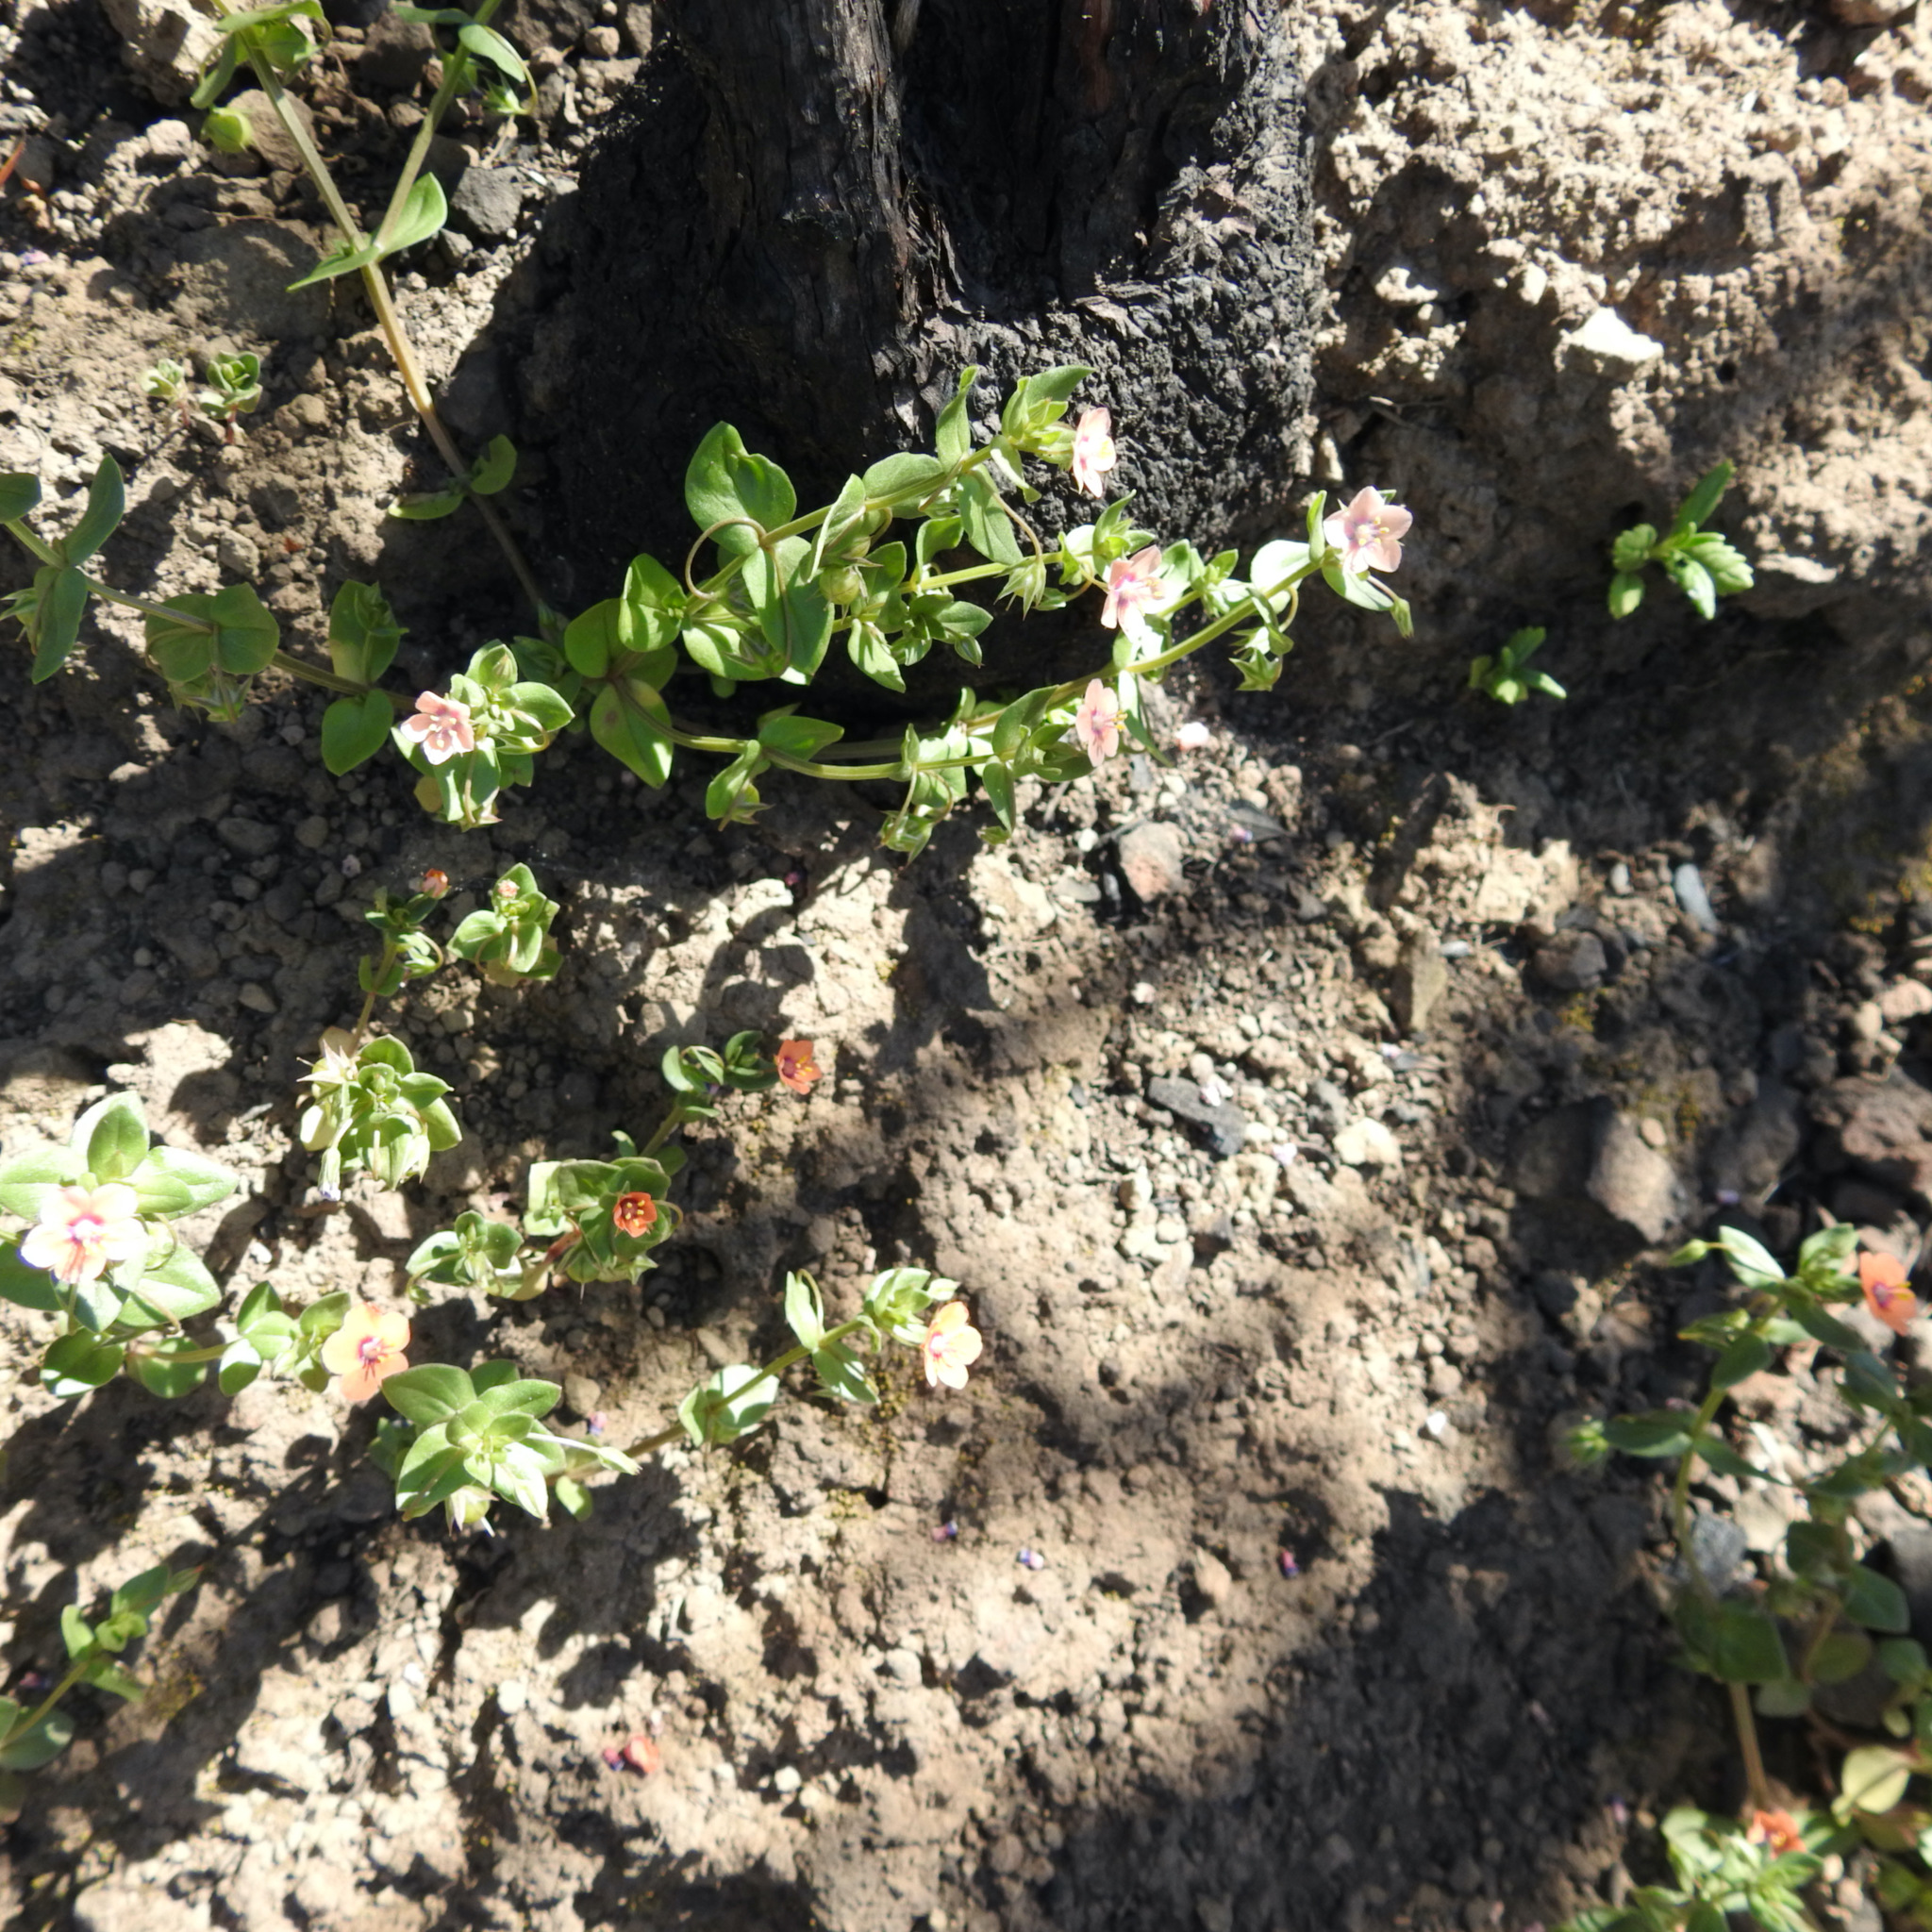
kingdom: Plantae
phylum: Tracheophyta
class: Magnoliopsida
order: Ericales
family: Primulaceae
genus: Lysimachia
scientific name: Lysimachia arvensis
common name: Scarlet pimpernel
